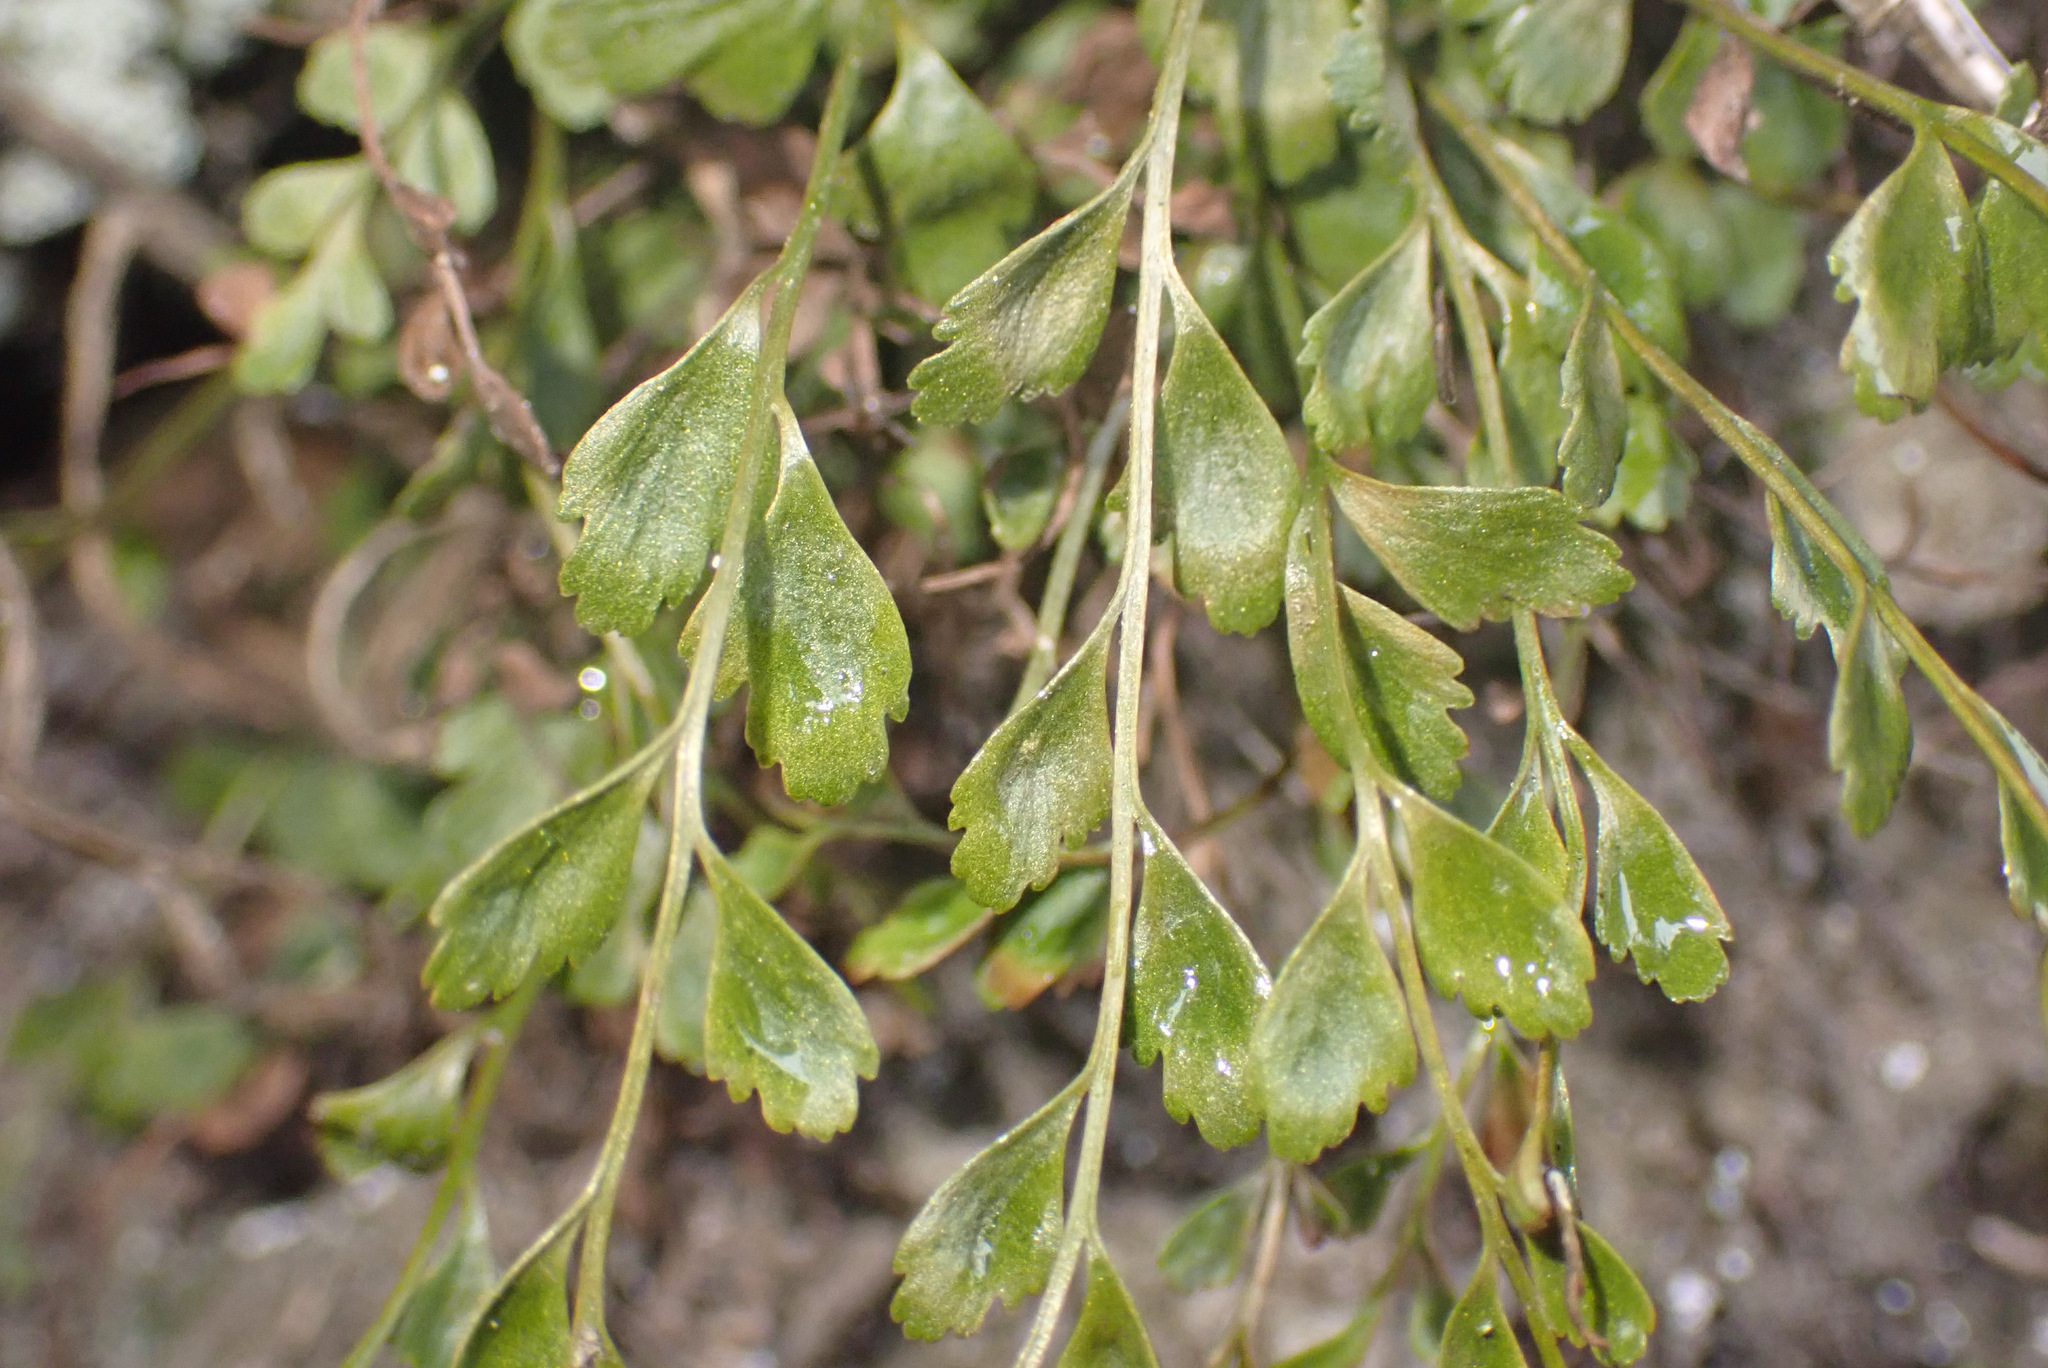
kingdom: Plantae
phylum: Tracheophyta
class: Polypodiopsida
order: Polypodiales
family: Aspleniaceae
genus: Asplenium
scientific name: Asplenium heufleri
